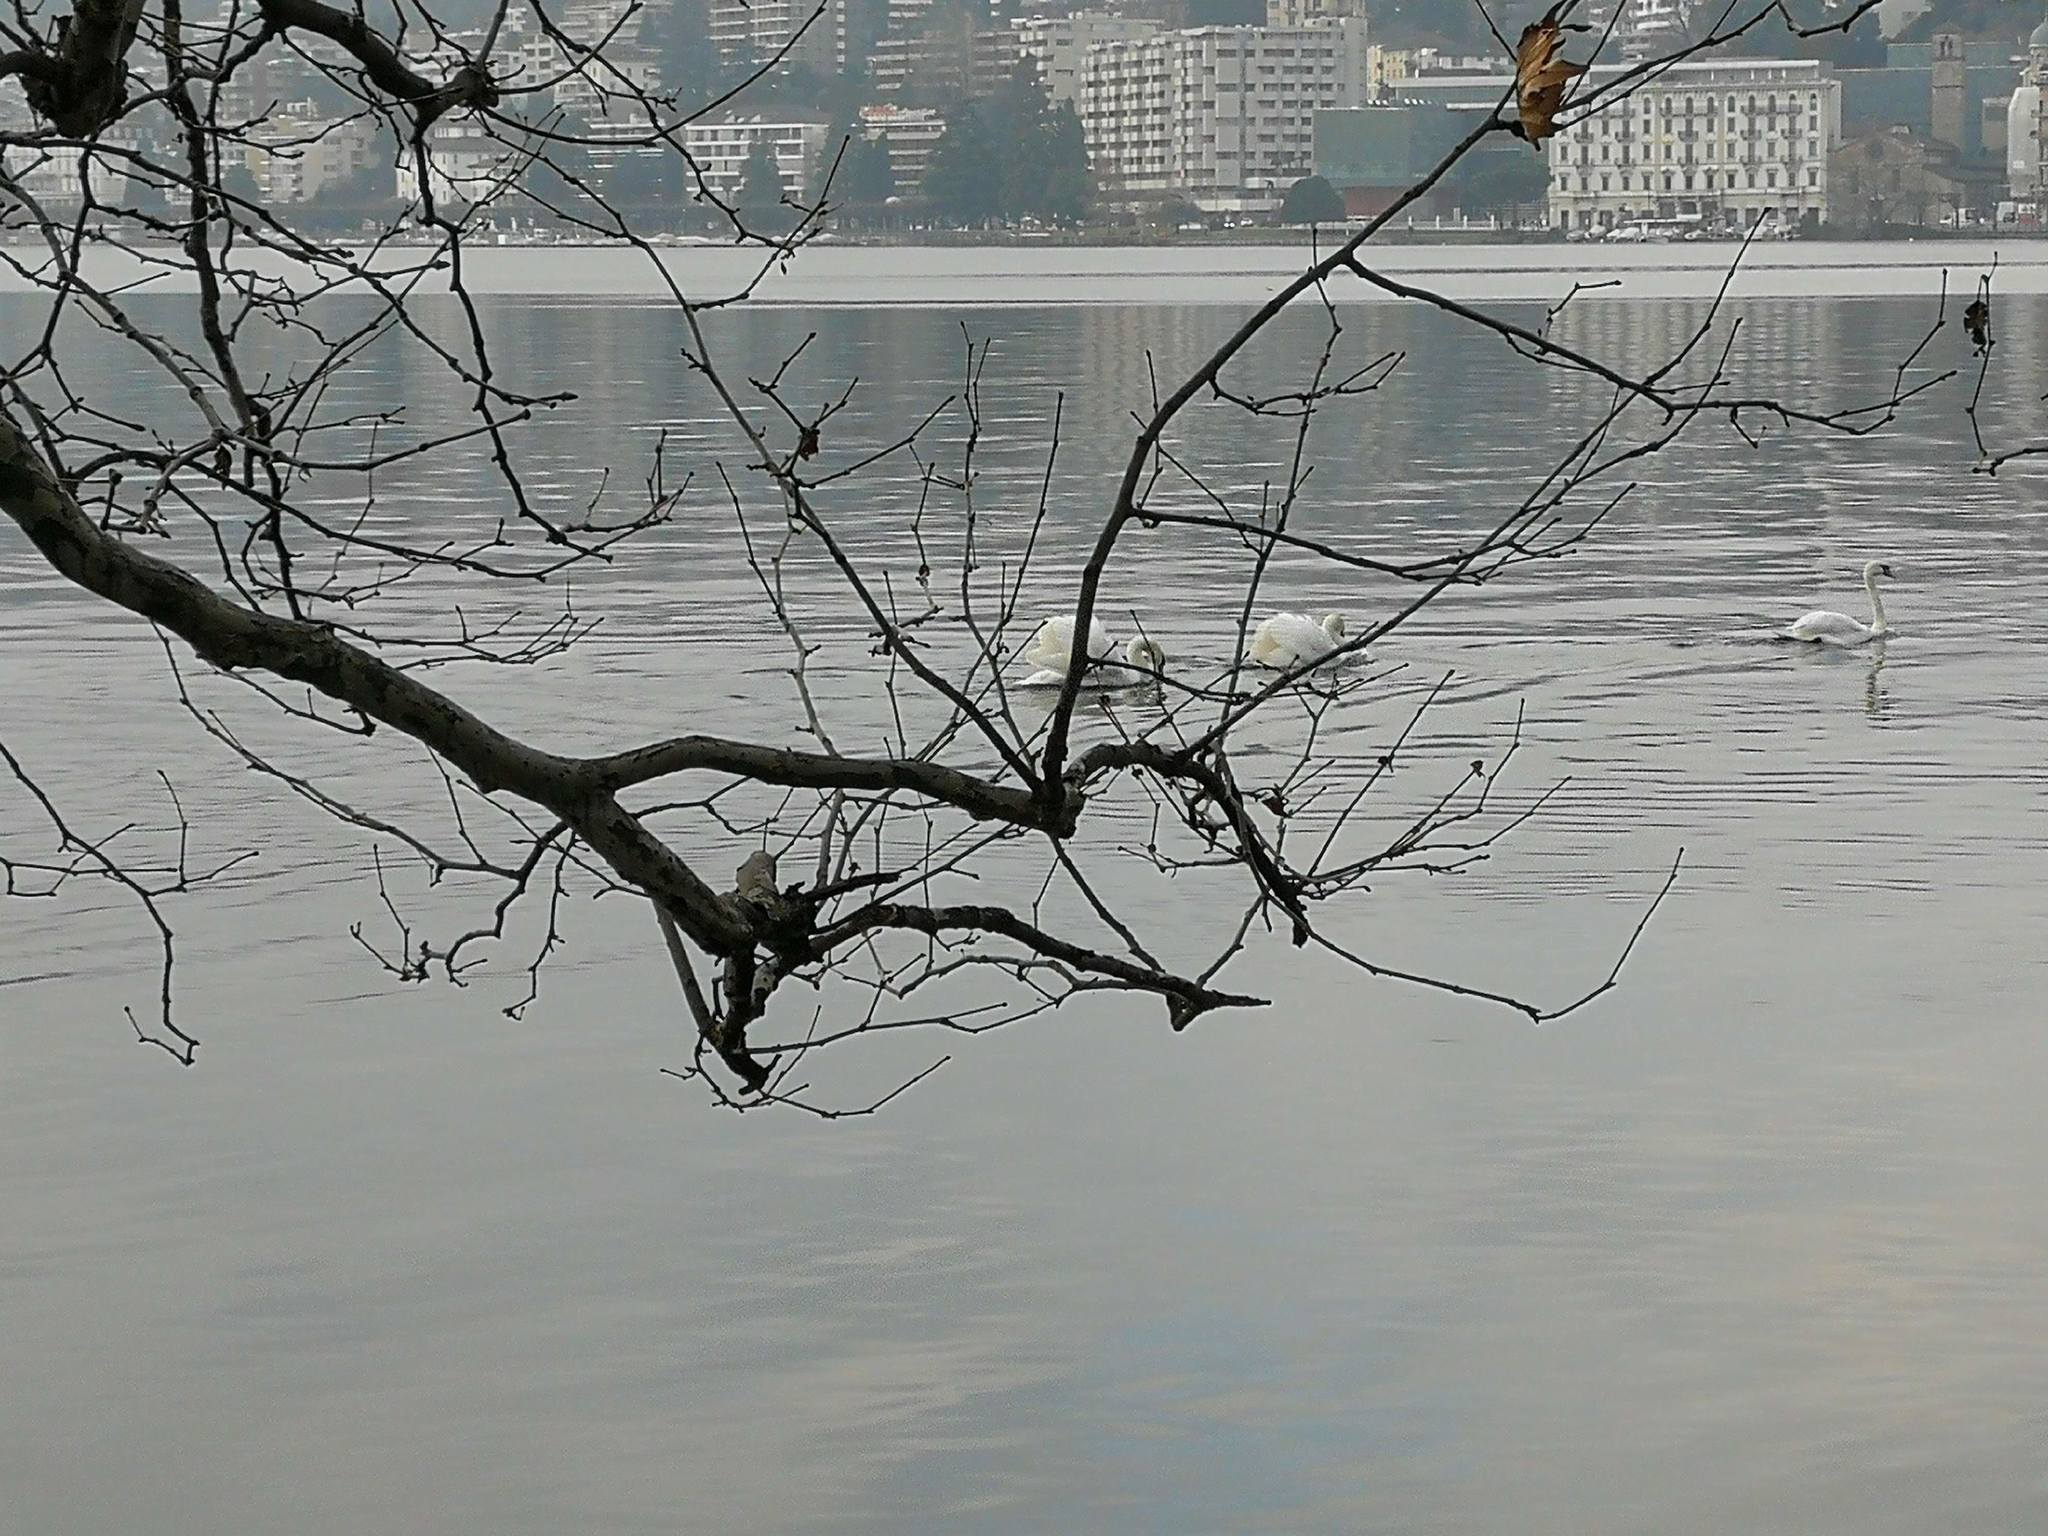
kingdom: Animalia
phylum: Chordata
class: Aves
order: Anseriformes
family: Anatidae
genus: Cygnus
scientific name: Cygnus olor
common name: Mute swan
